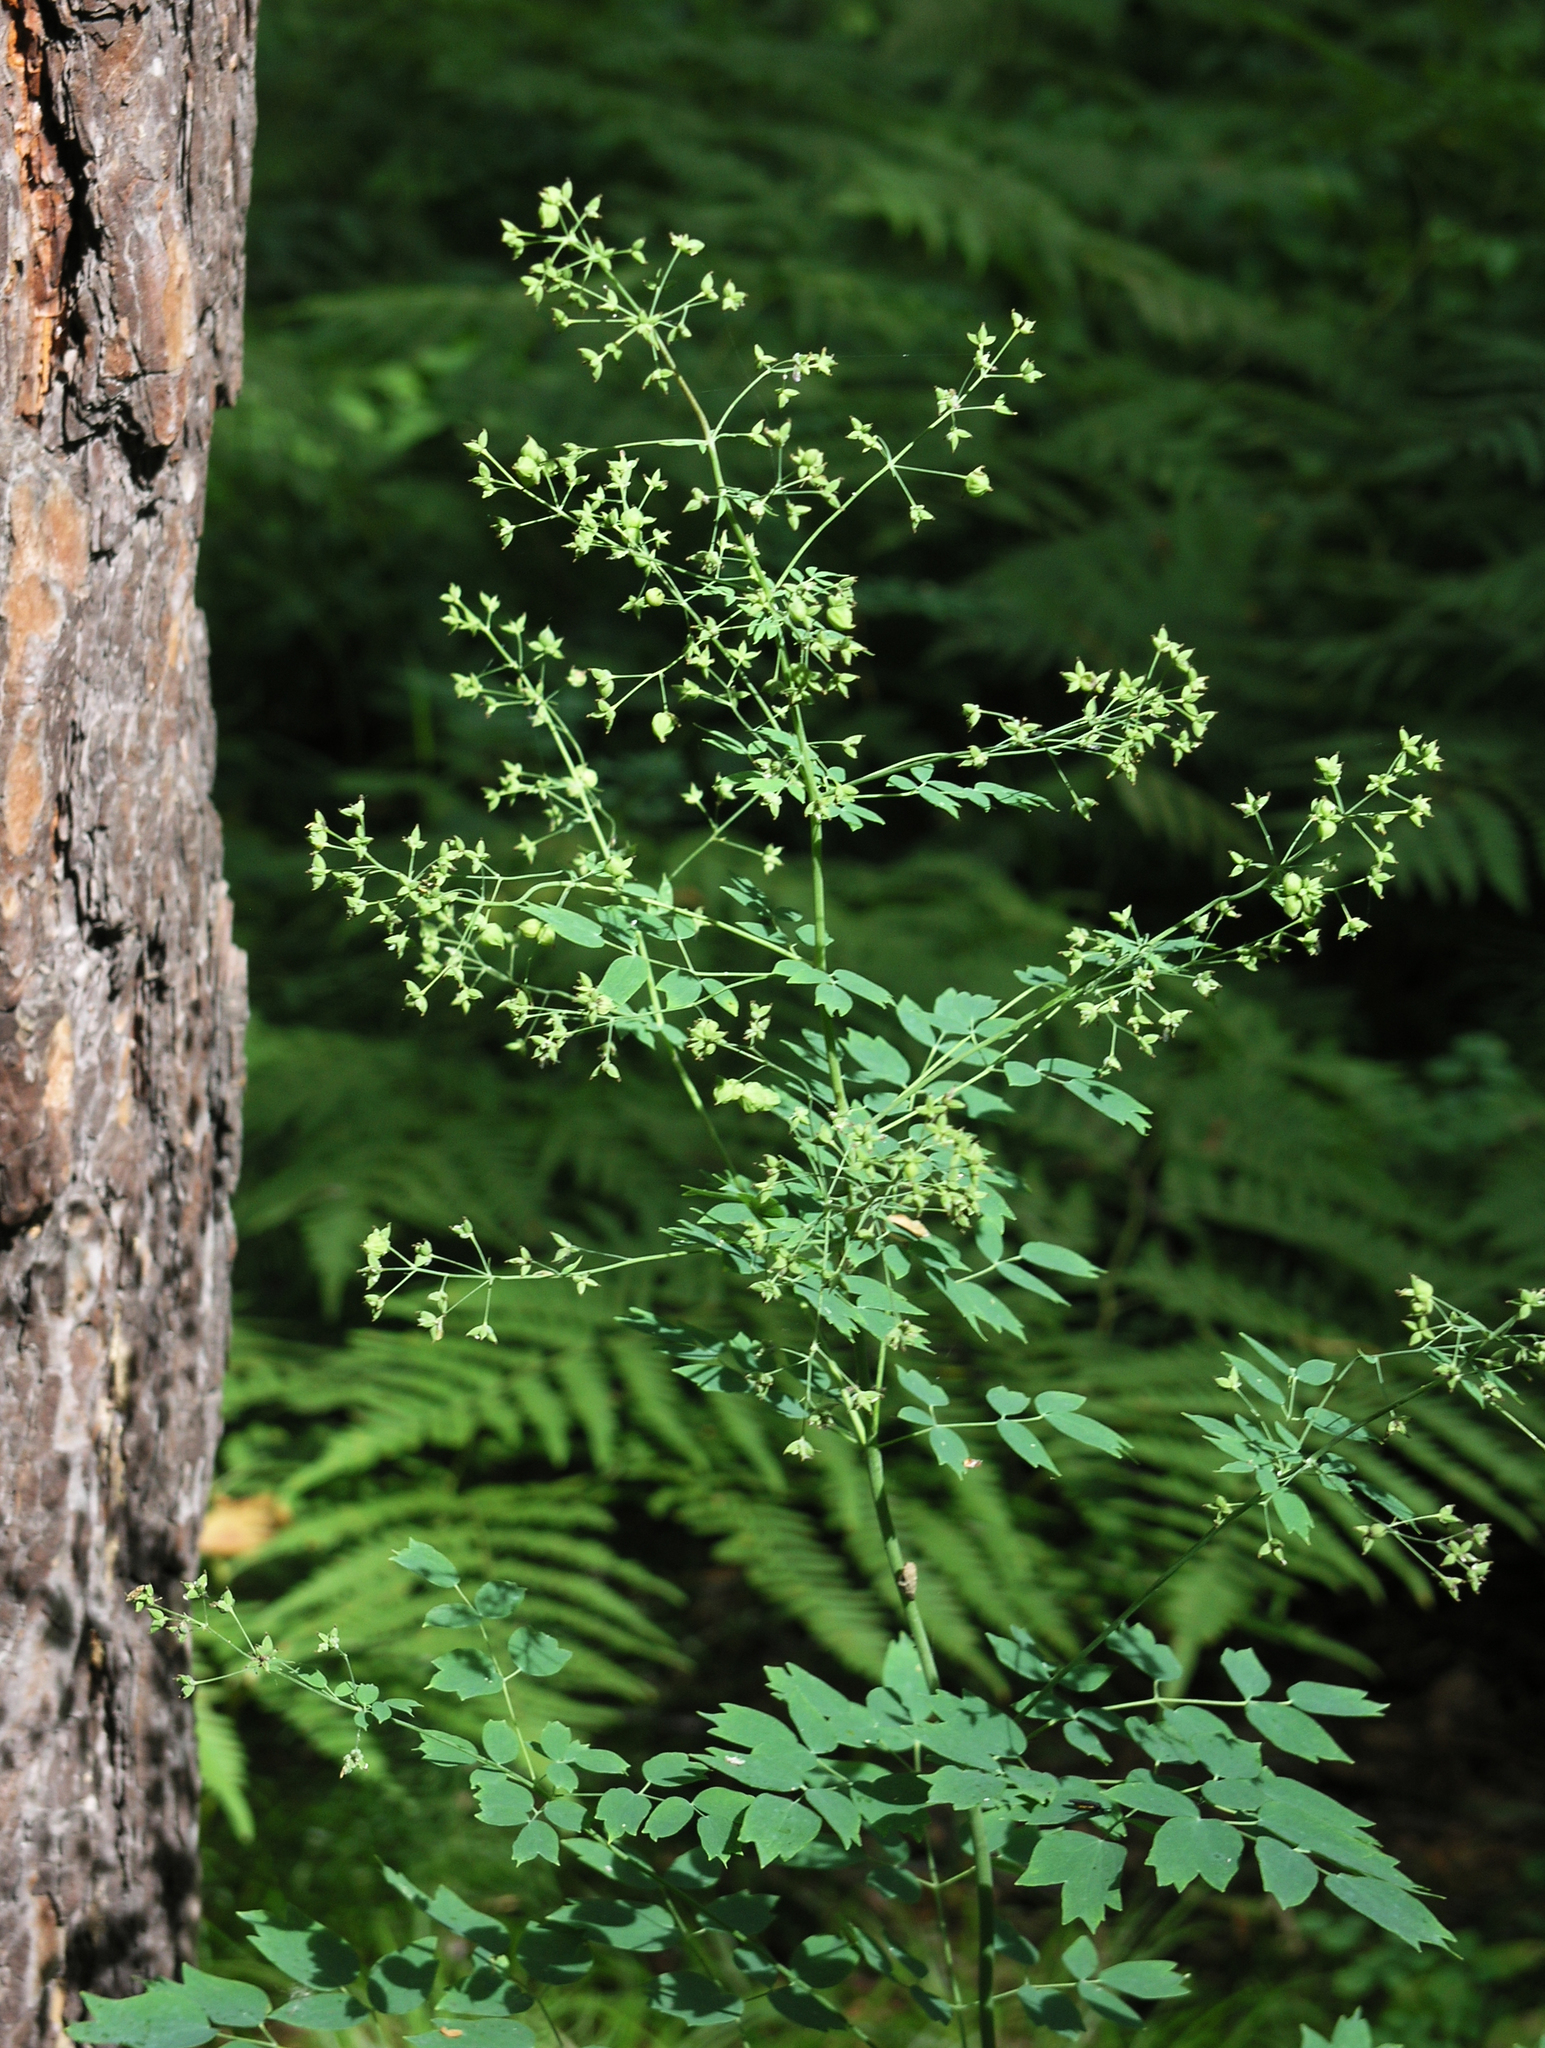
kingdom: Plantae
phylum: Tracheophyta
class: Magnoliopsida
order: Ranunculales
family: Ranunculaceae
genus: Thalictrum
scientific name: Thalictrum minus
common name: Lesser meadow-rue
